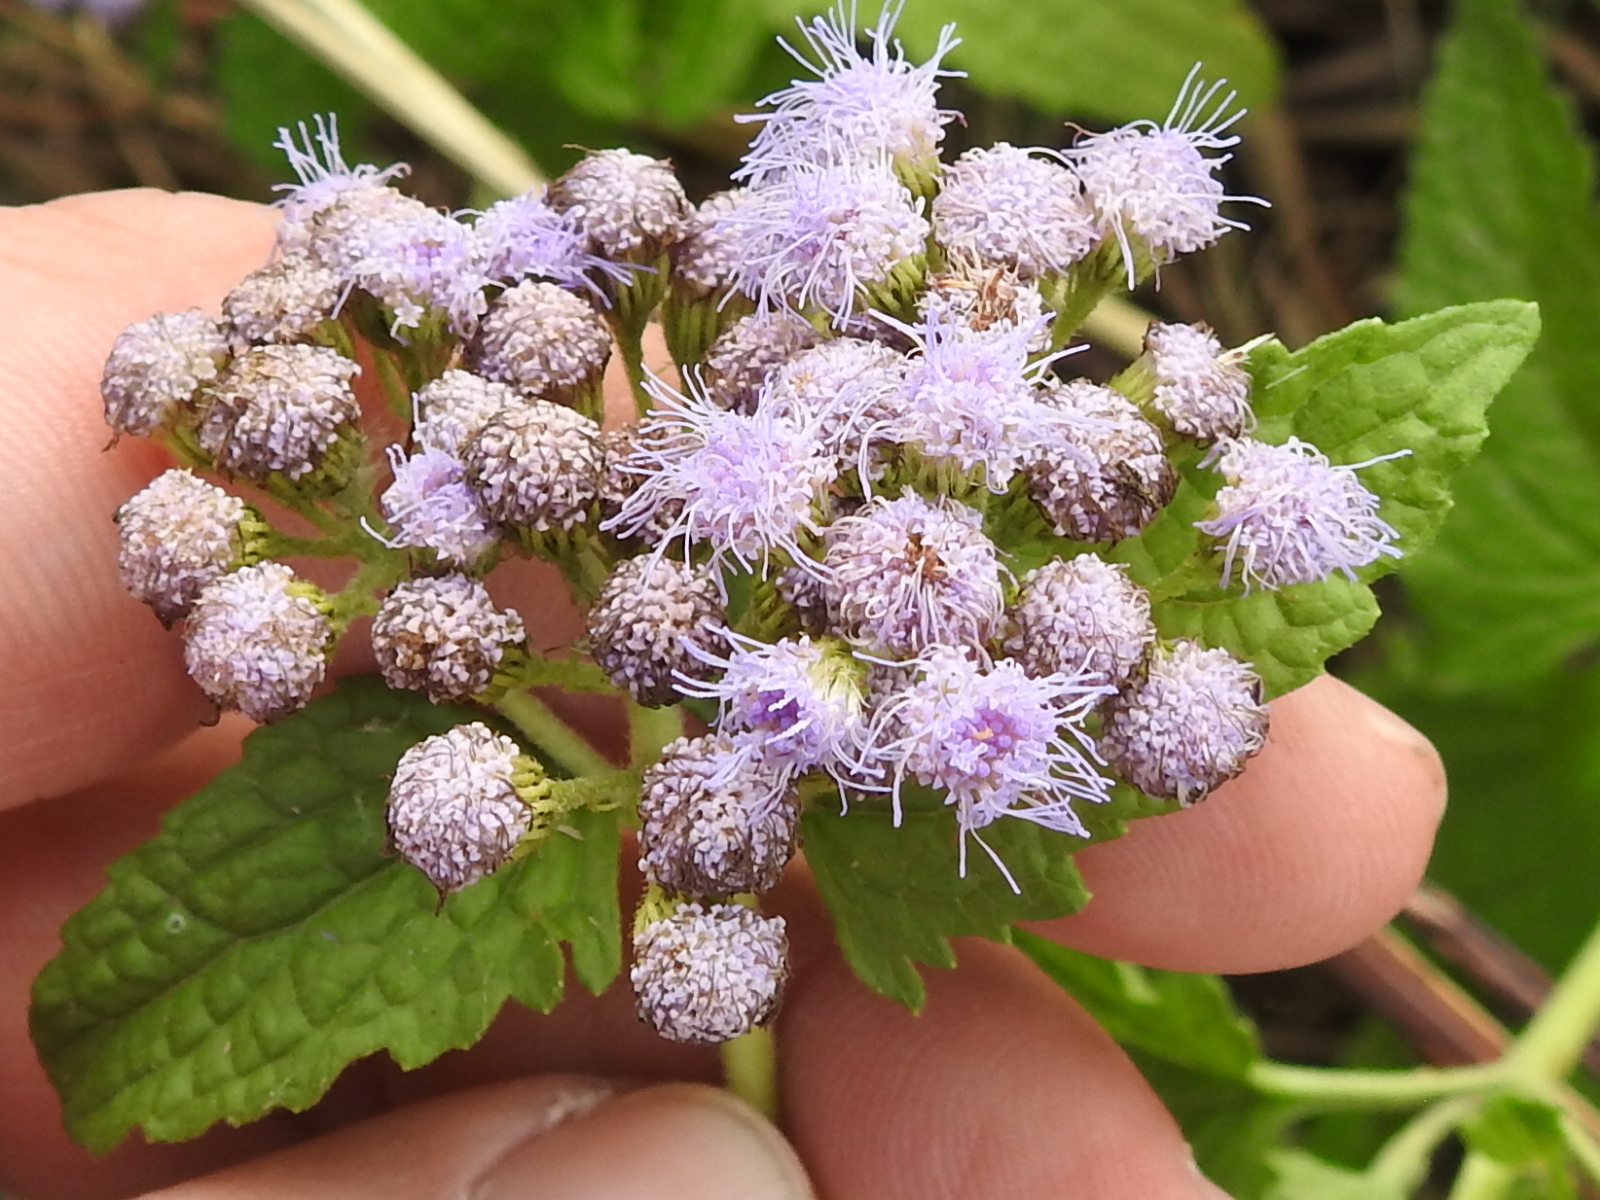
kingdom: Plantae
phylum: Tracheophyta
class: Magnoliopsida
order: Asterales
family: Asteraceae
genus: Conoclinium
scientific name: Conoclinium coelestinum
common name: Blue mistflower
